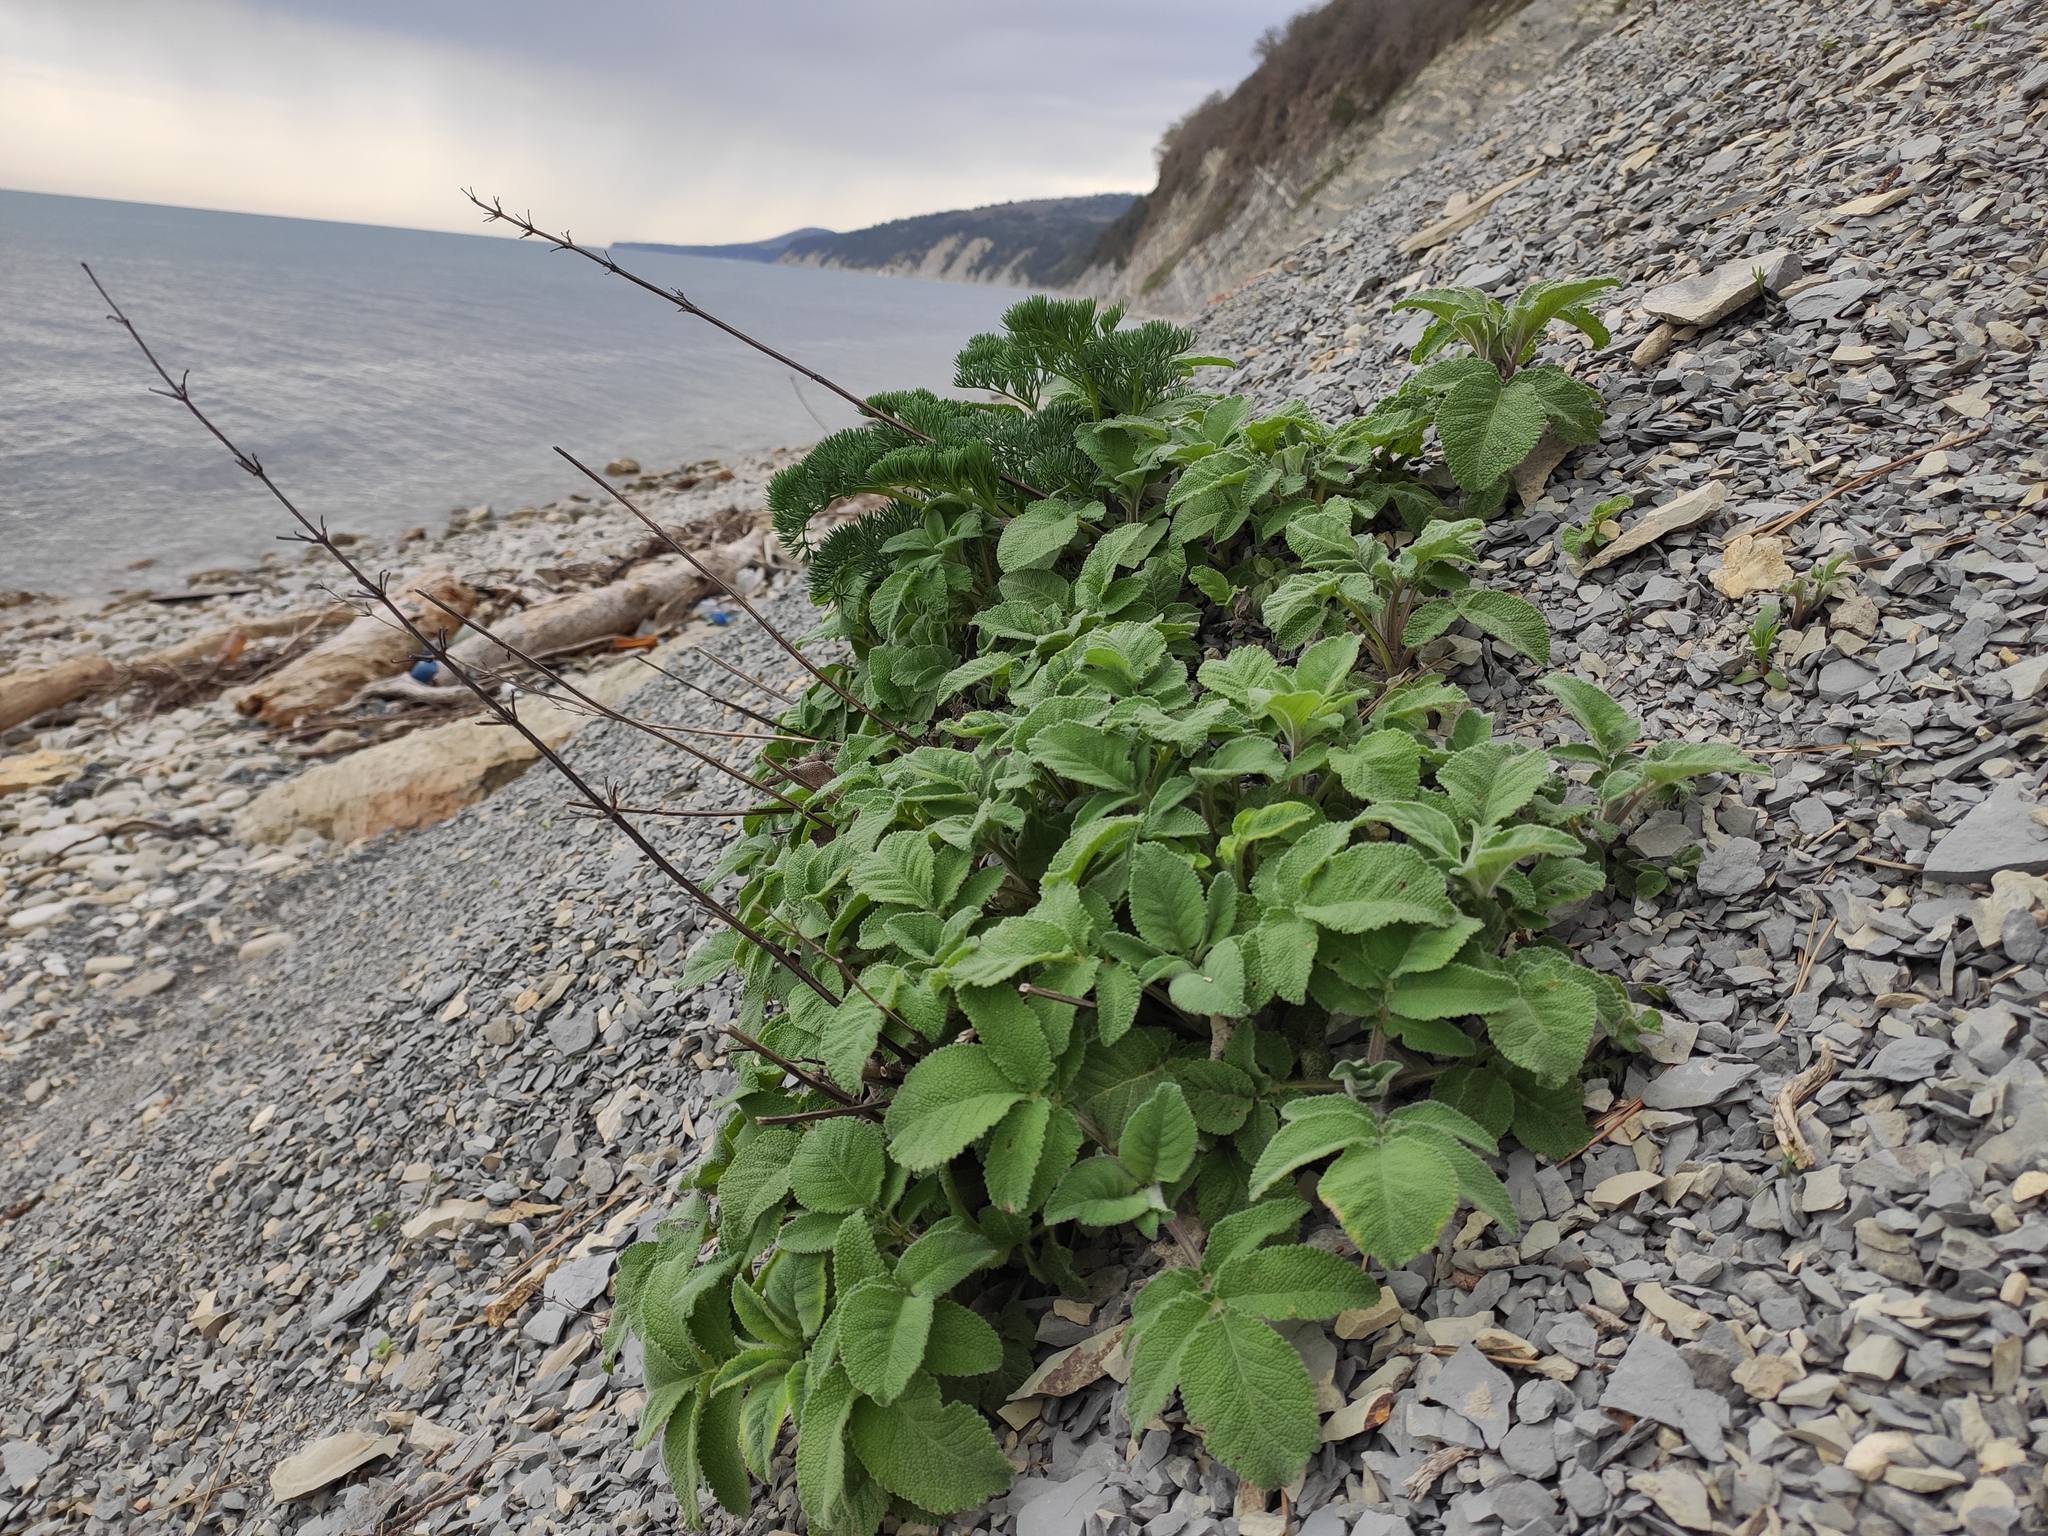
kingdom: Plantae
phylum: Tracheophyta
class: Magnoliopsida
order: Lamiales
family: Lamiaceae
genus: Salvia
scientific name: Salvia ringens
